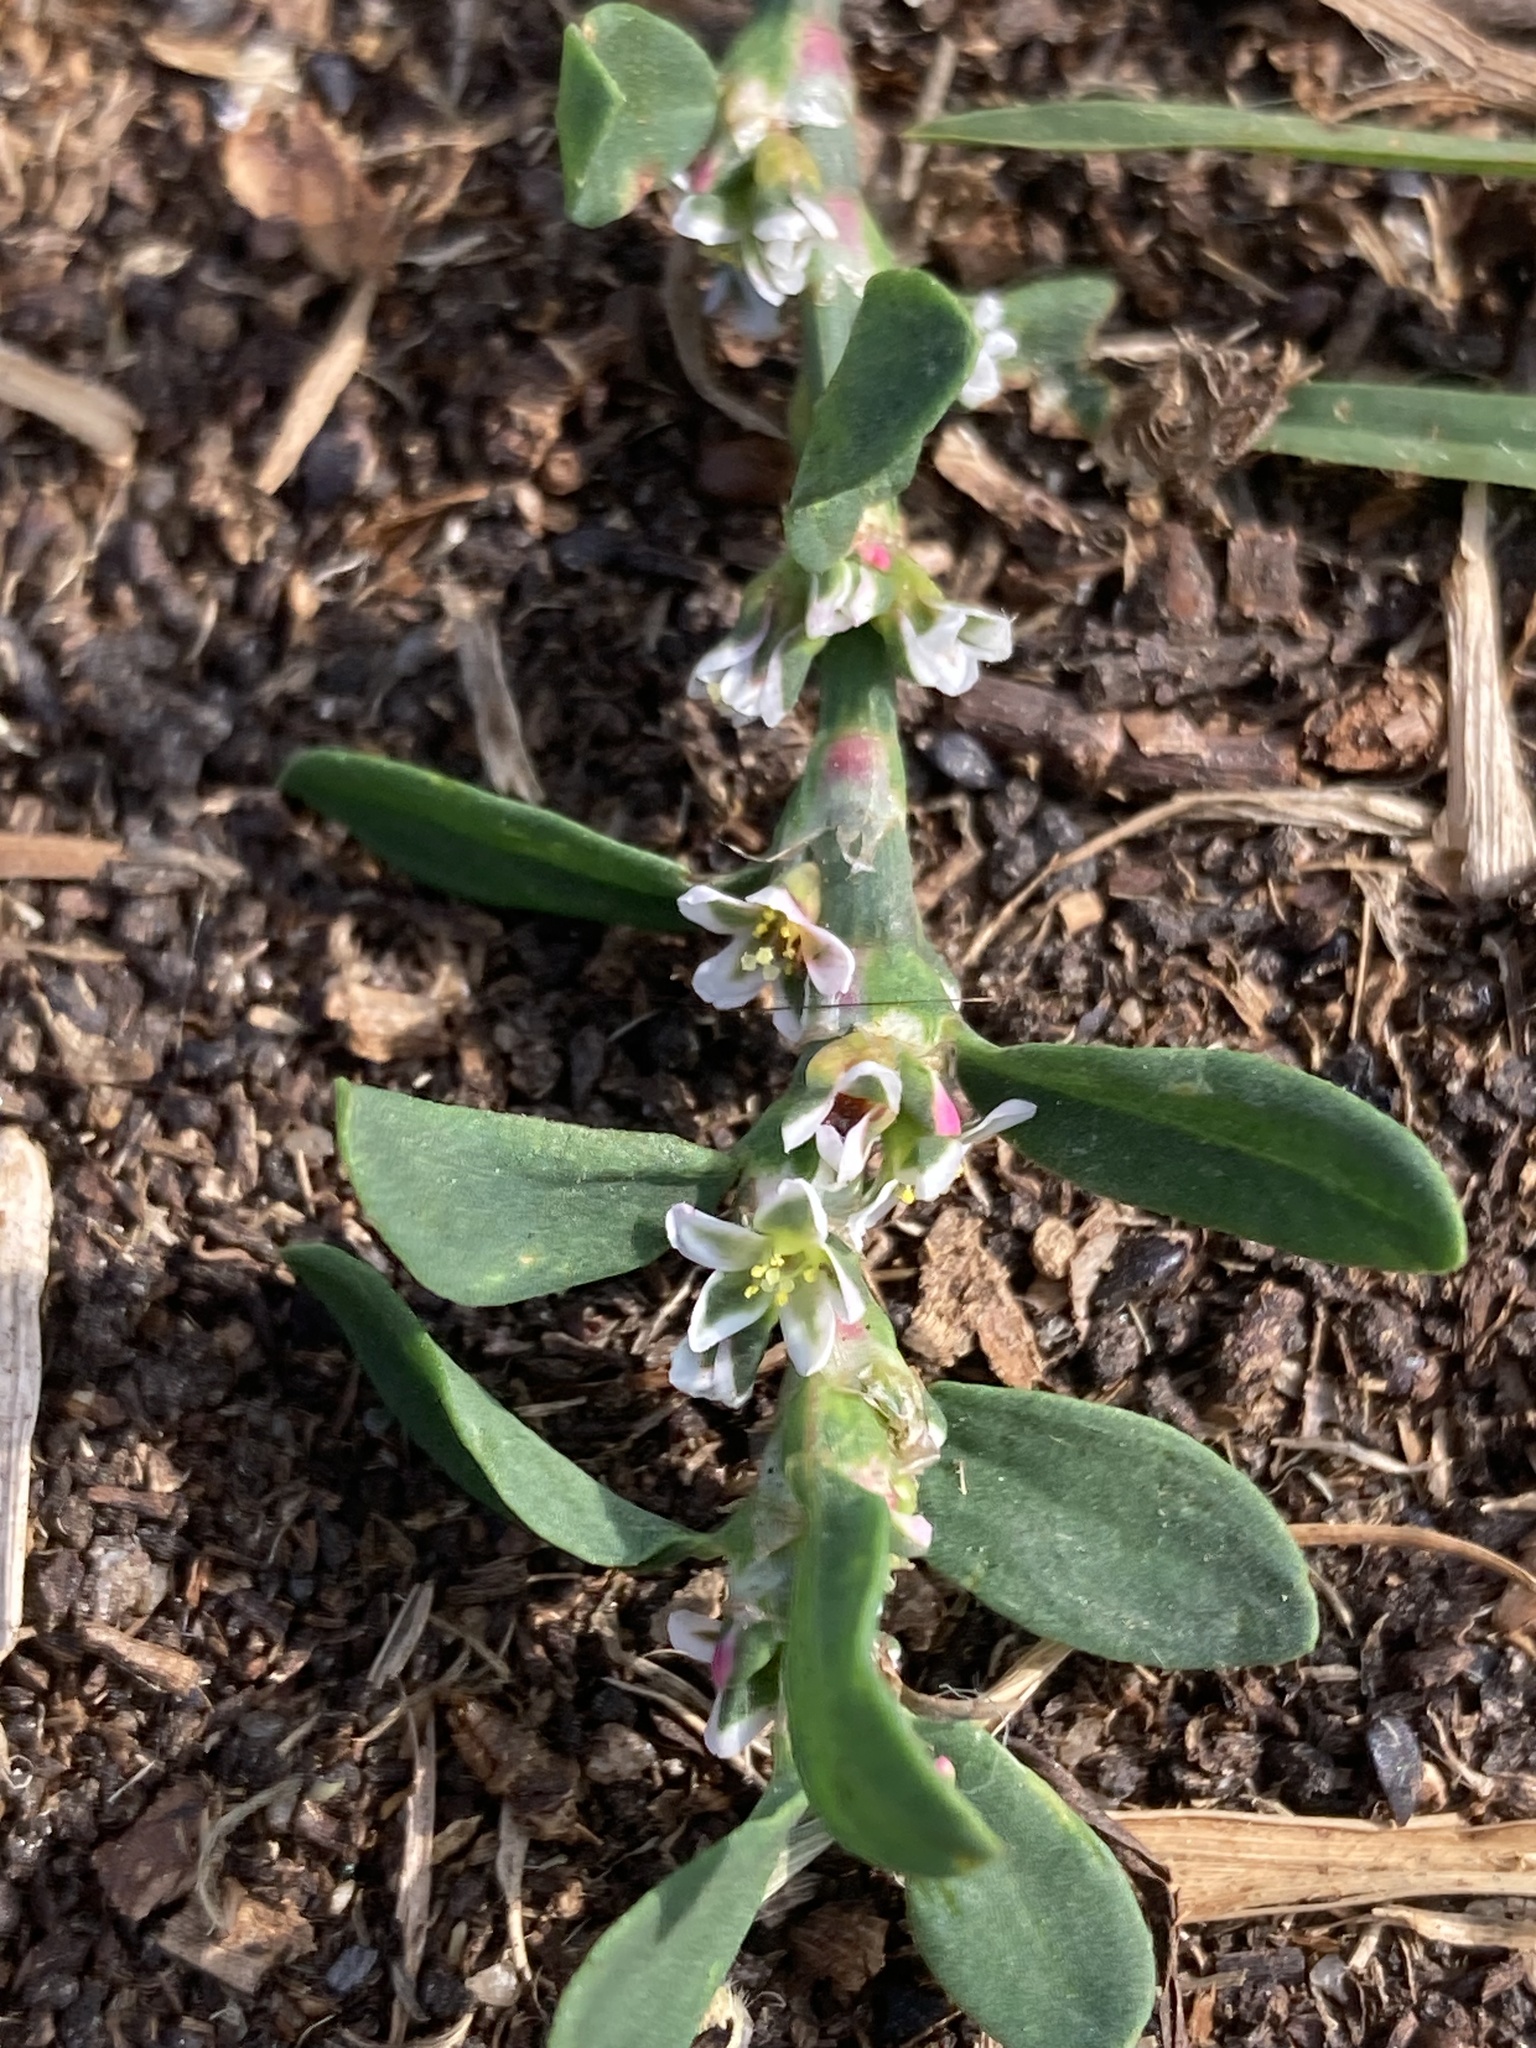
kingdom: Plantae
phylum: Tracheophyta
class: Magnoliopsida
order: Caryophyllales
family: Polygonaceae
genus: Polygonum
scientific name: Polygonum aviculare
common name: Prostrate knotweed
